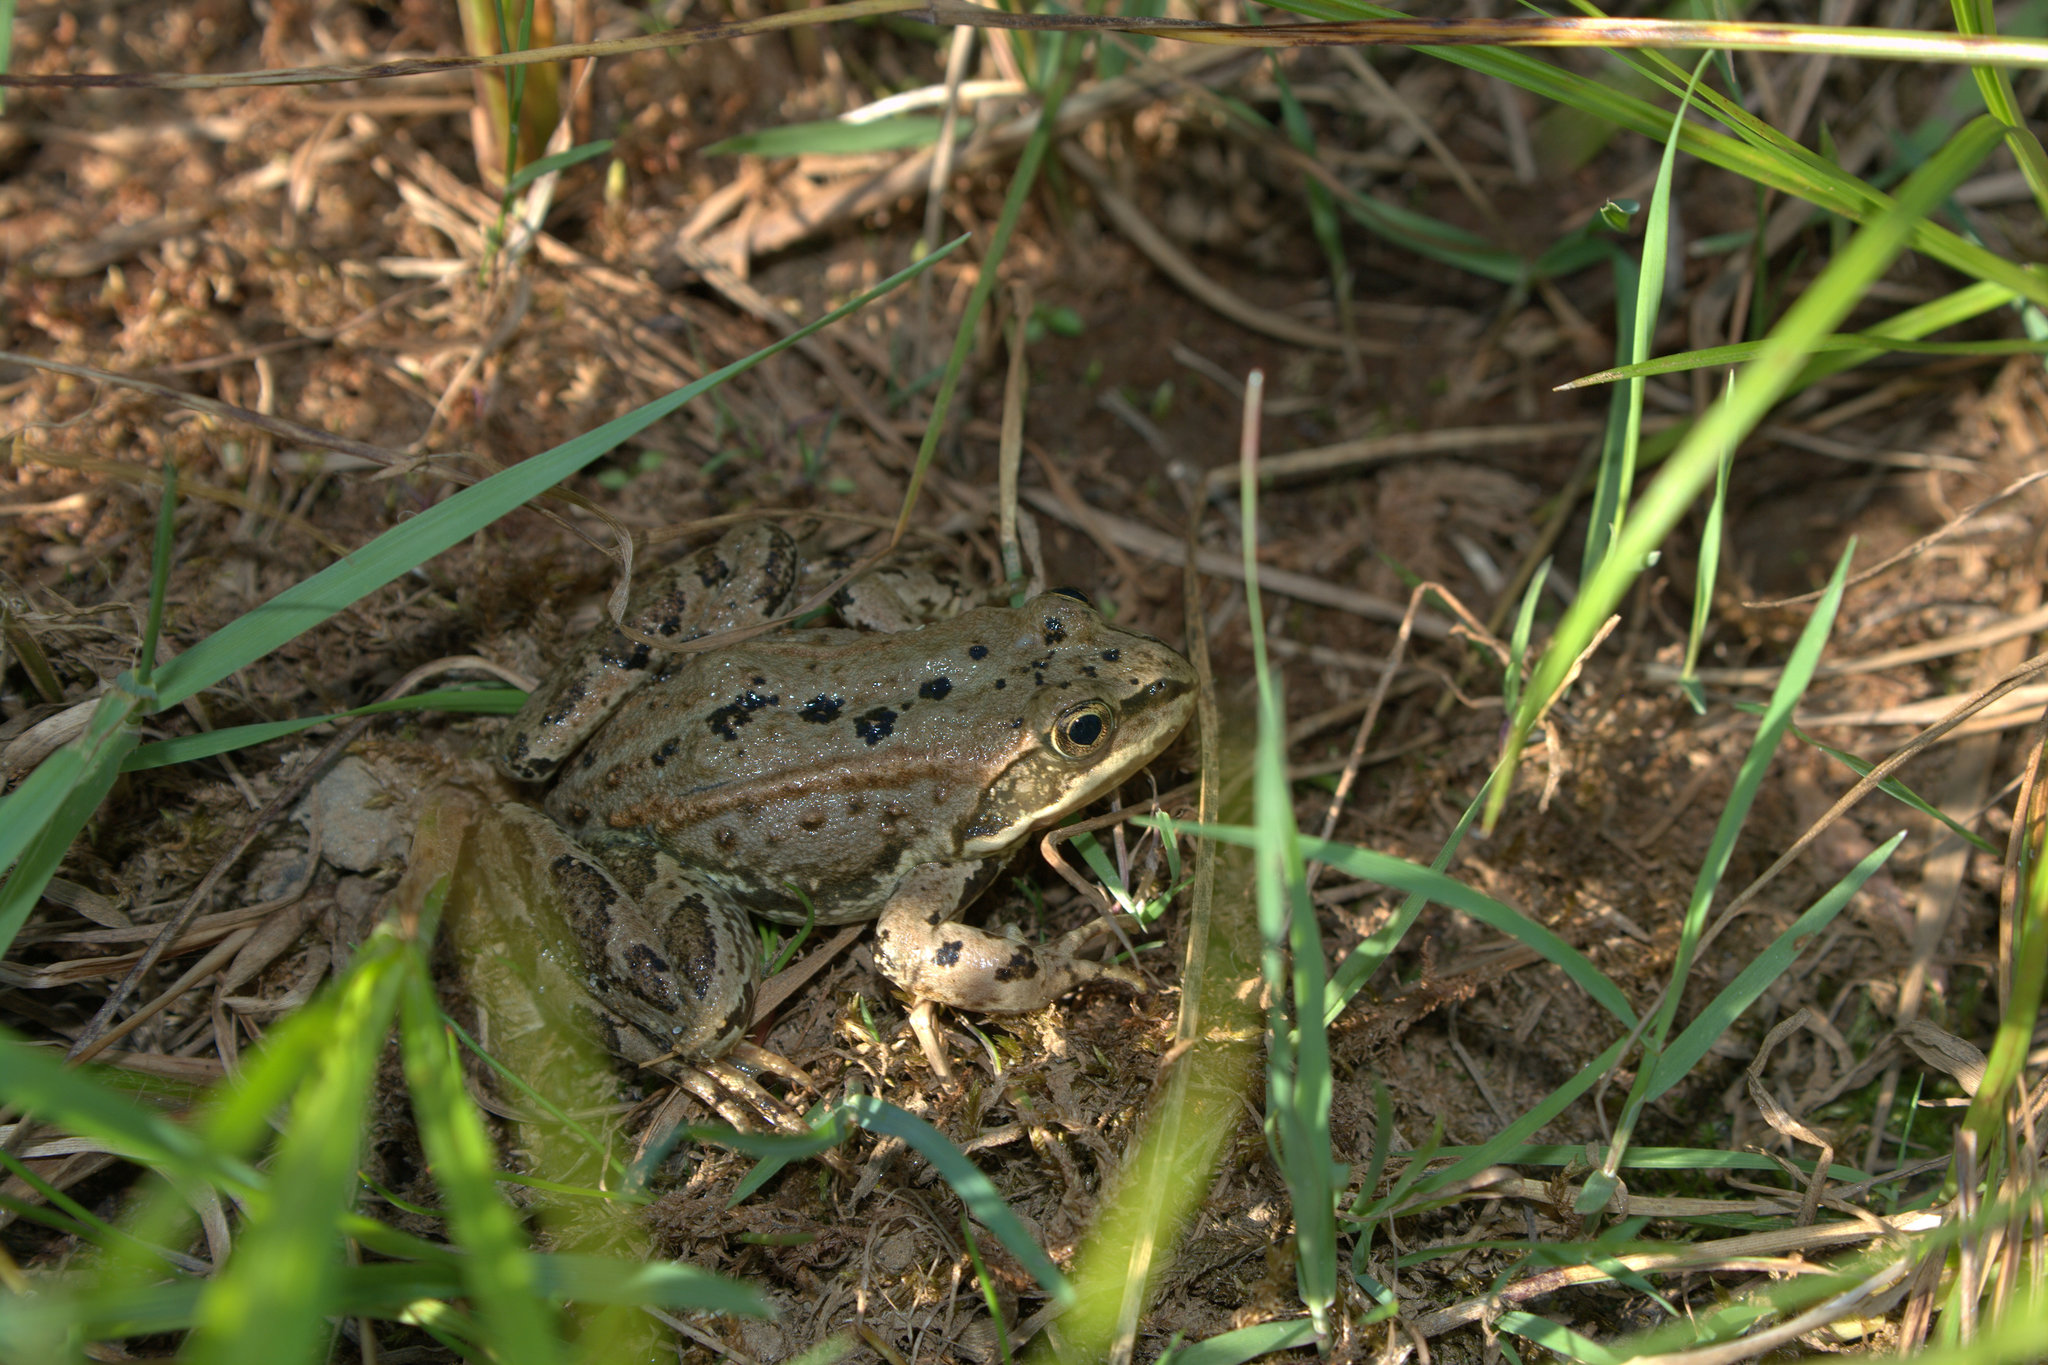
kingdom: Animalia
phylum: Chordata
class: Amphibia
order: Anura
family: Ranidae
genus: Rana
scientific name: Rana luteiventris
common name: Columbia spotted frog
